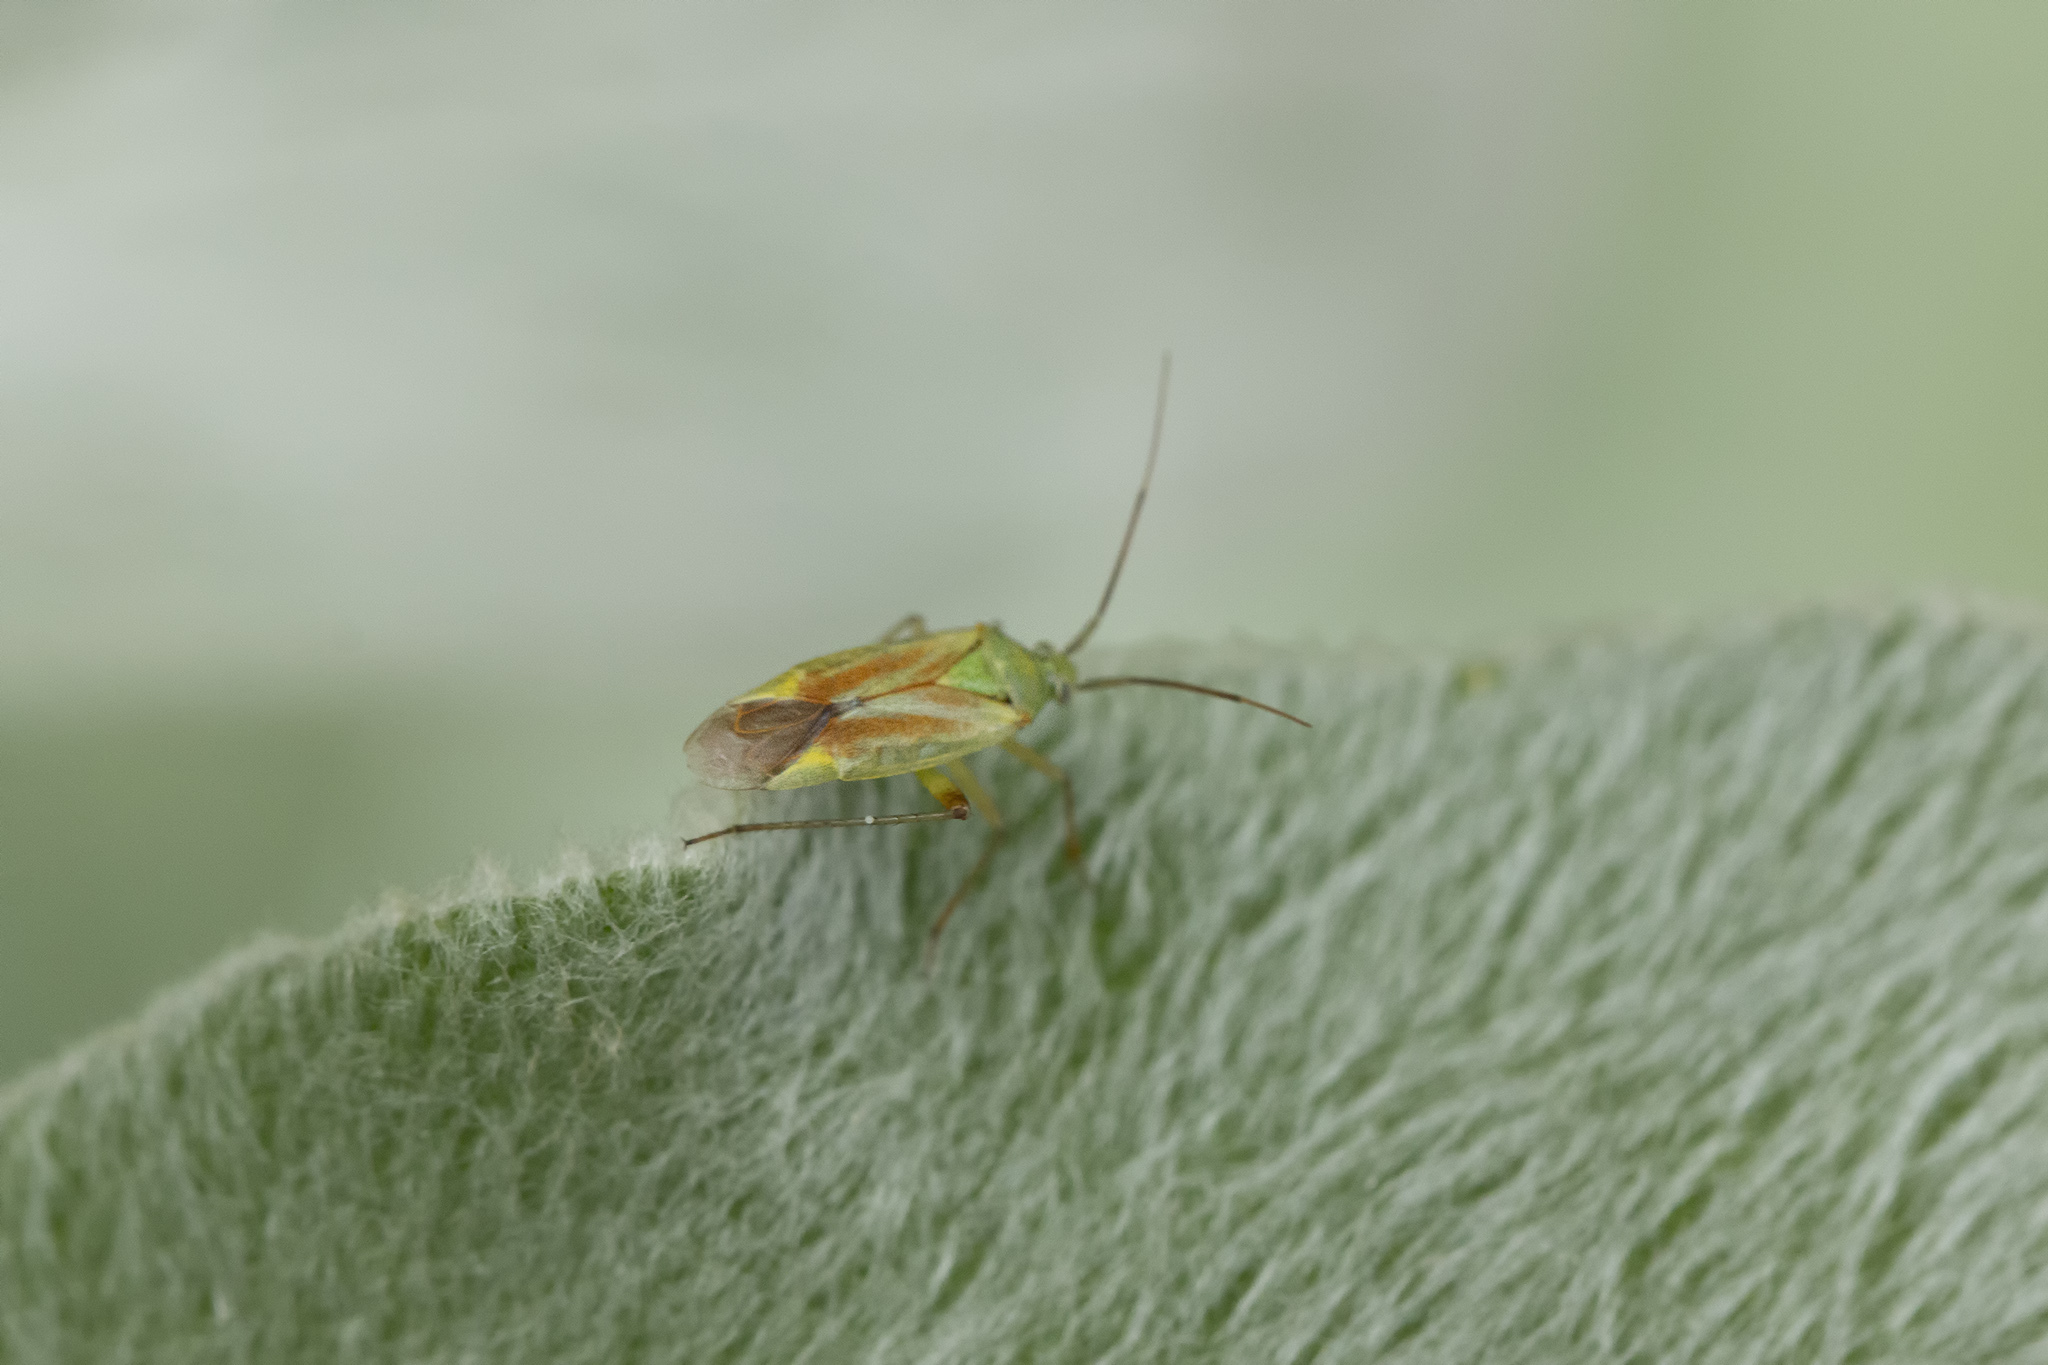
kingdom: Animalia
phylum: Arthropoda
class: Insecta
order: Hemiptera
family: Miridae
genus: Closterotomus
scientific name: Closterotomus norvegicus
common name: Plant bug
